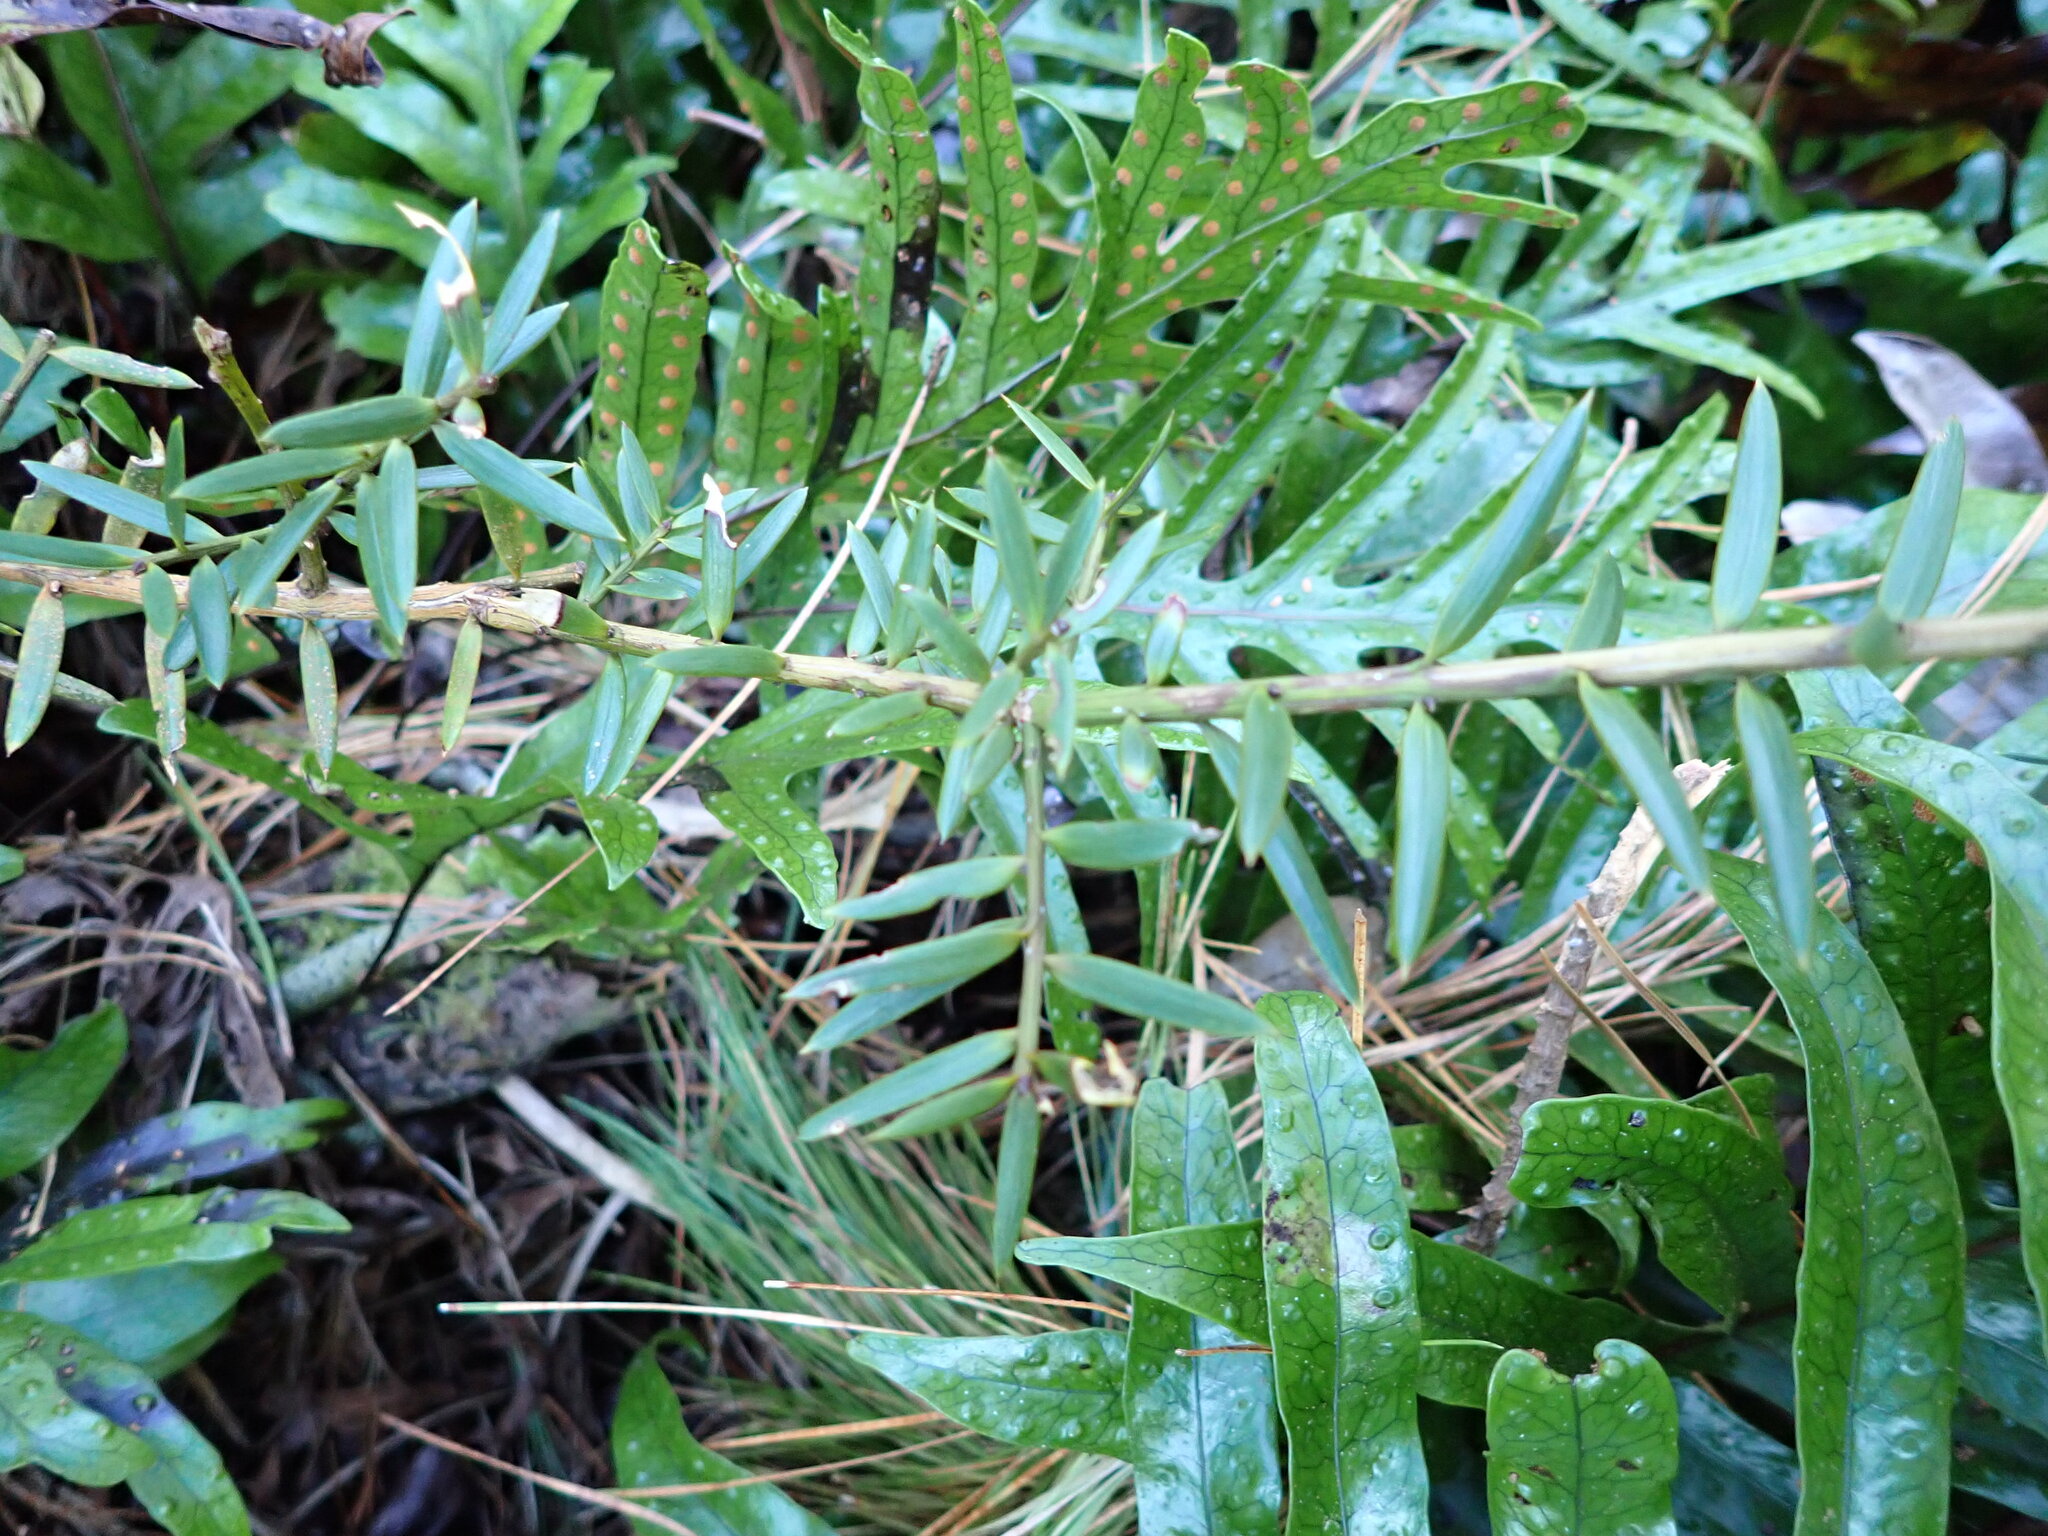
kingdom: Plantae
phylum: Tracheophyta
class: Pinopsida
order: Pinales
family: Podocarpaceae
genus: Podocarpus
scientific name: Podocarpus totara
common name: Totara
